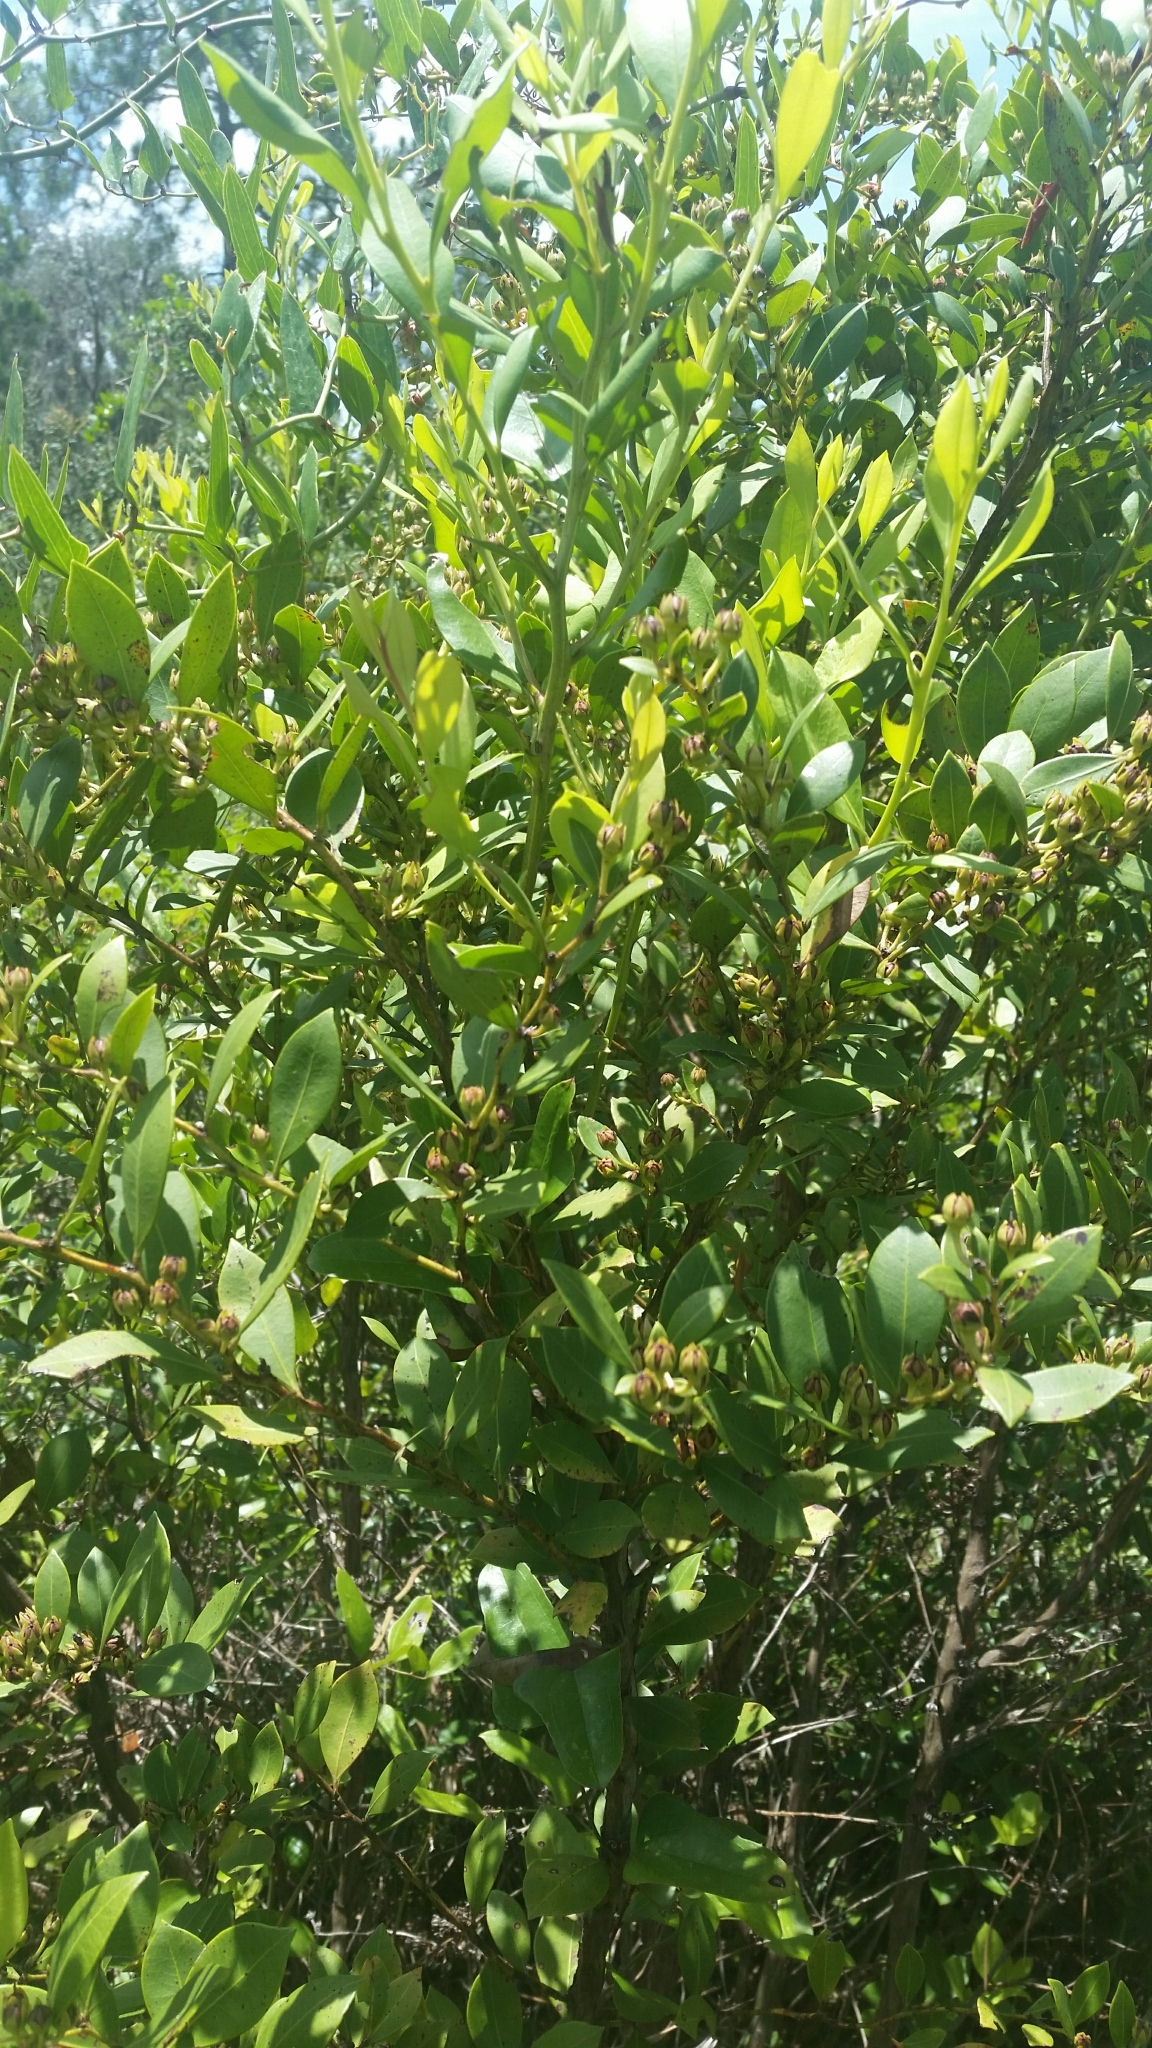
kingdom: Plantae
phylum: Tracheophyta
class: Magnoliopsida
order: Ericales
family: Ericaceae
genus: Lyonia
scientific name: Lyonia lucida
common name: Fetterbush
